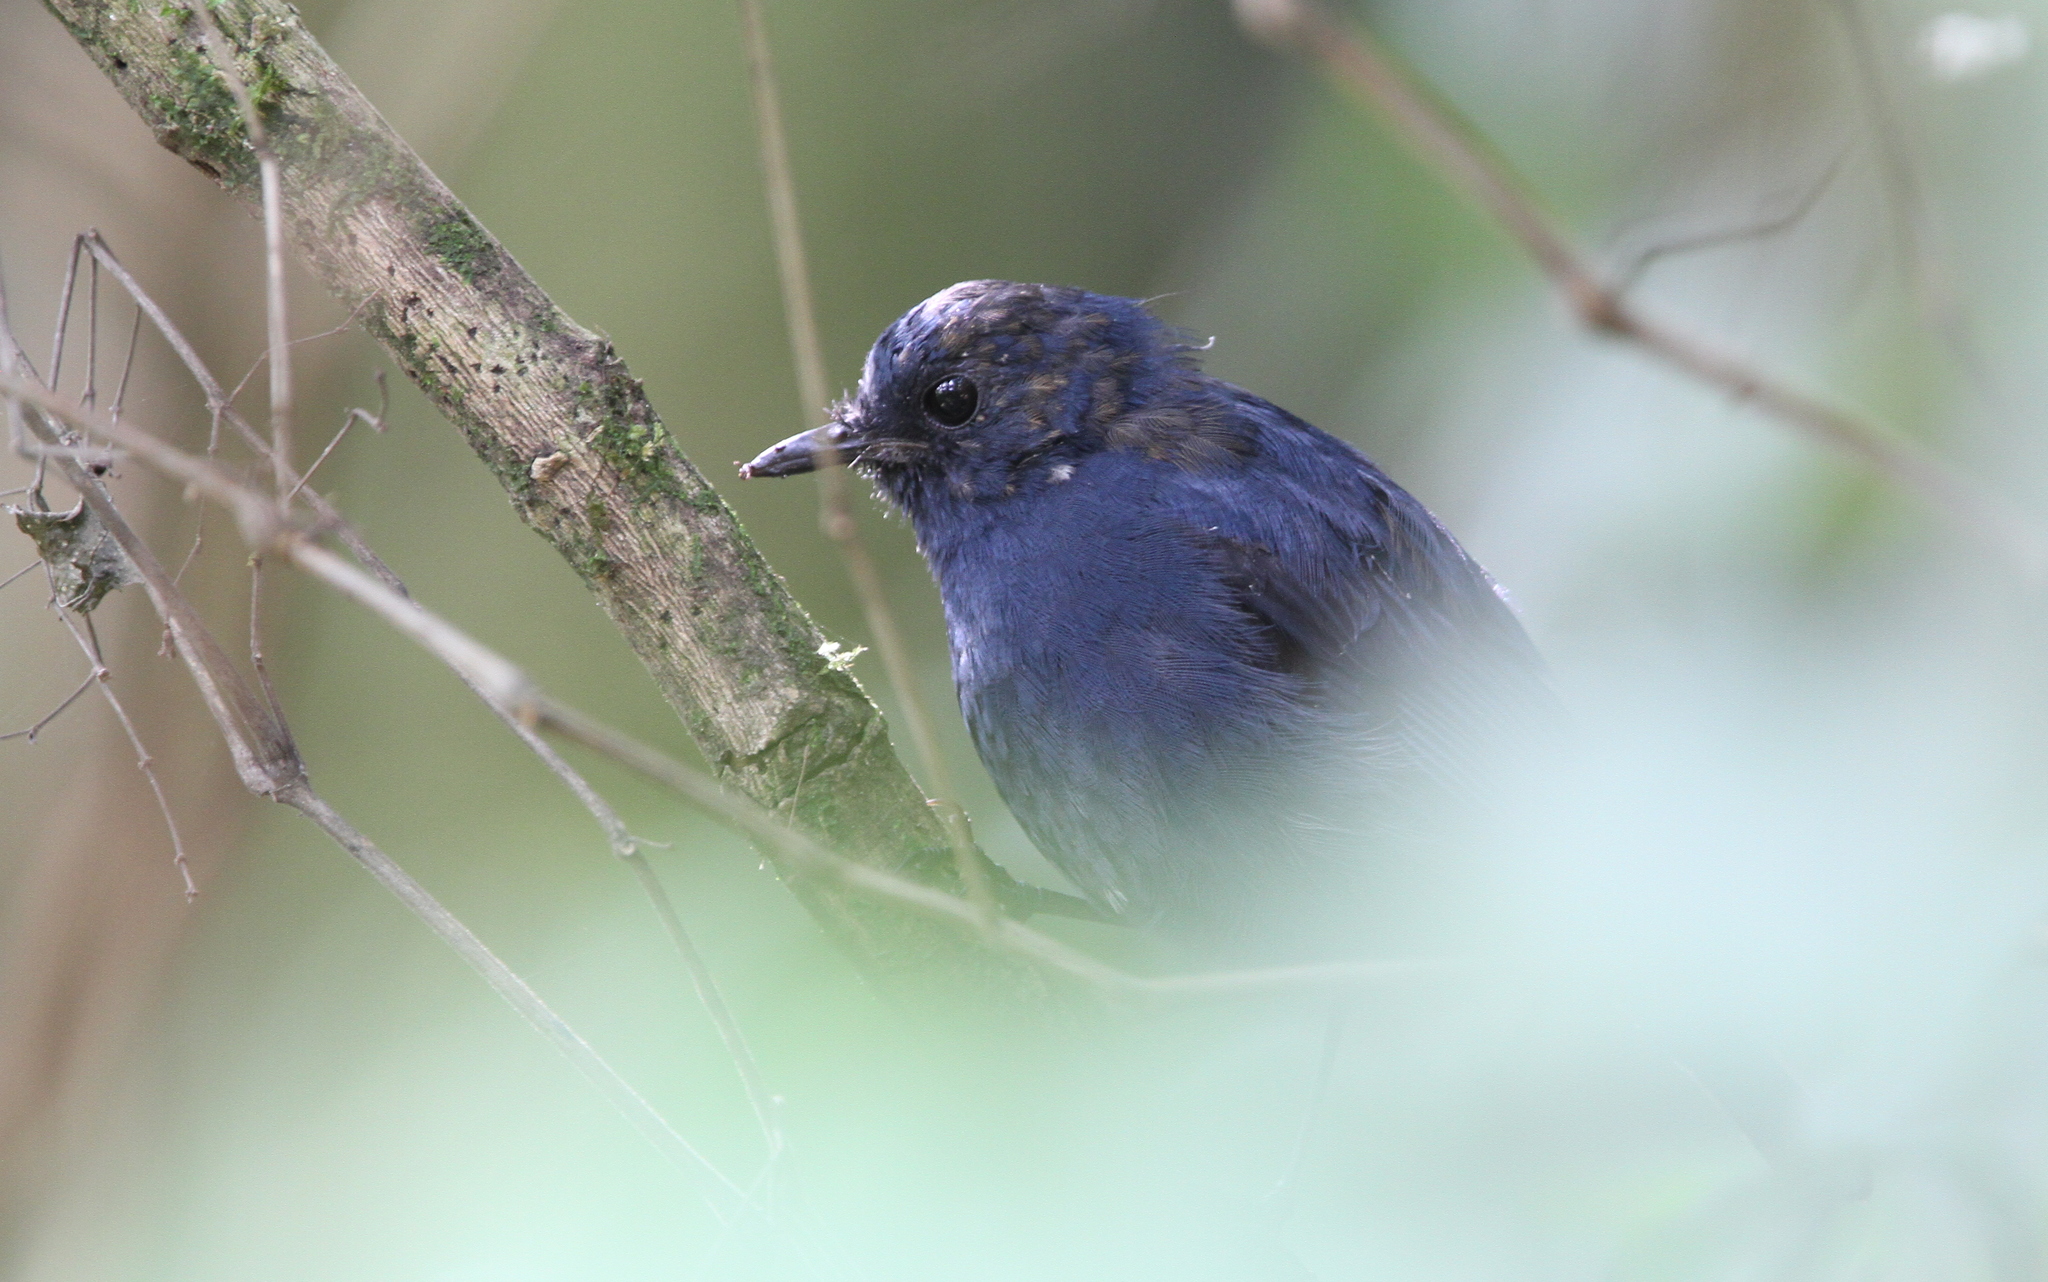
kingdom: Animalia
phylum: Chordata
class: Aves
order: Passeriformes
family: Muscicapidae
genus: Myiomela
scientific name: Myiomela diana
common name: Sunda robin
